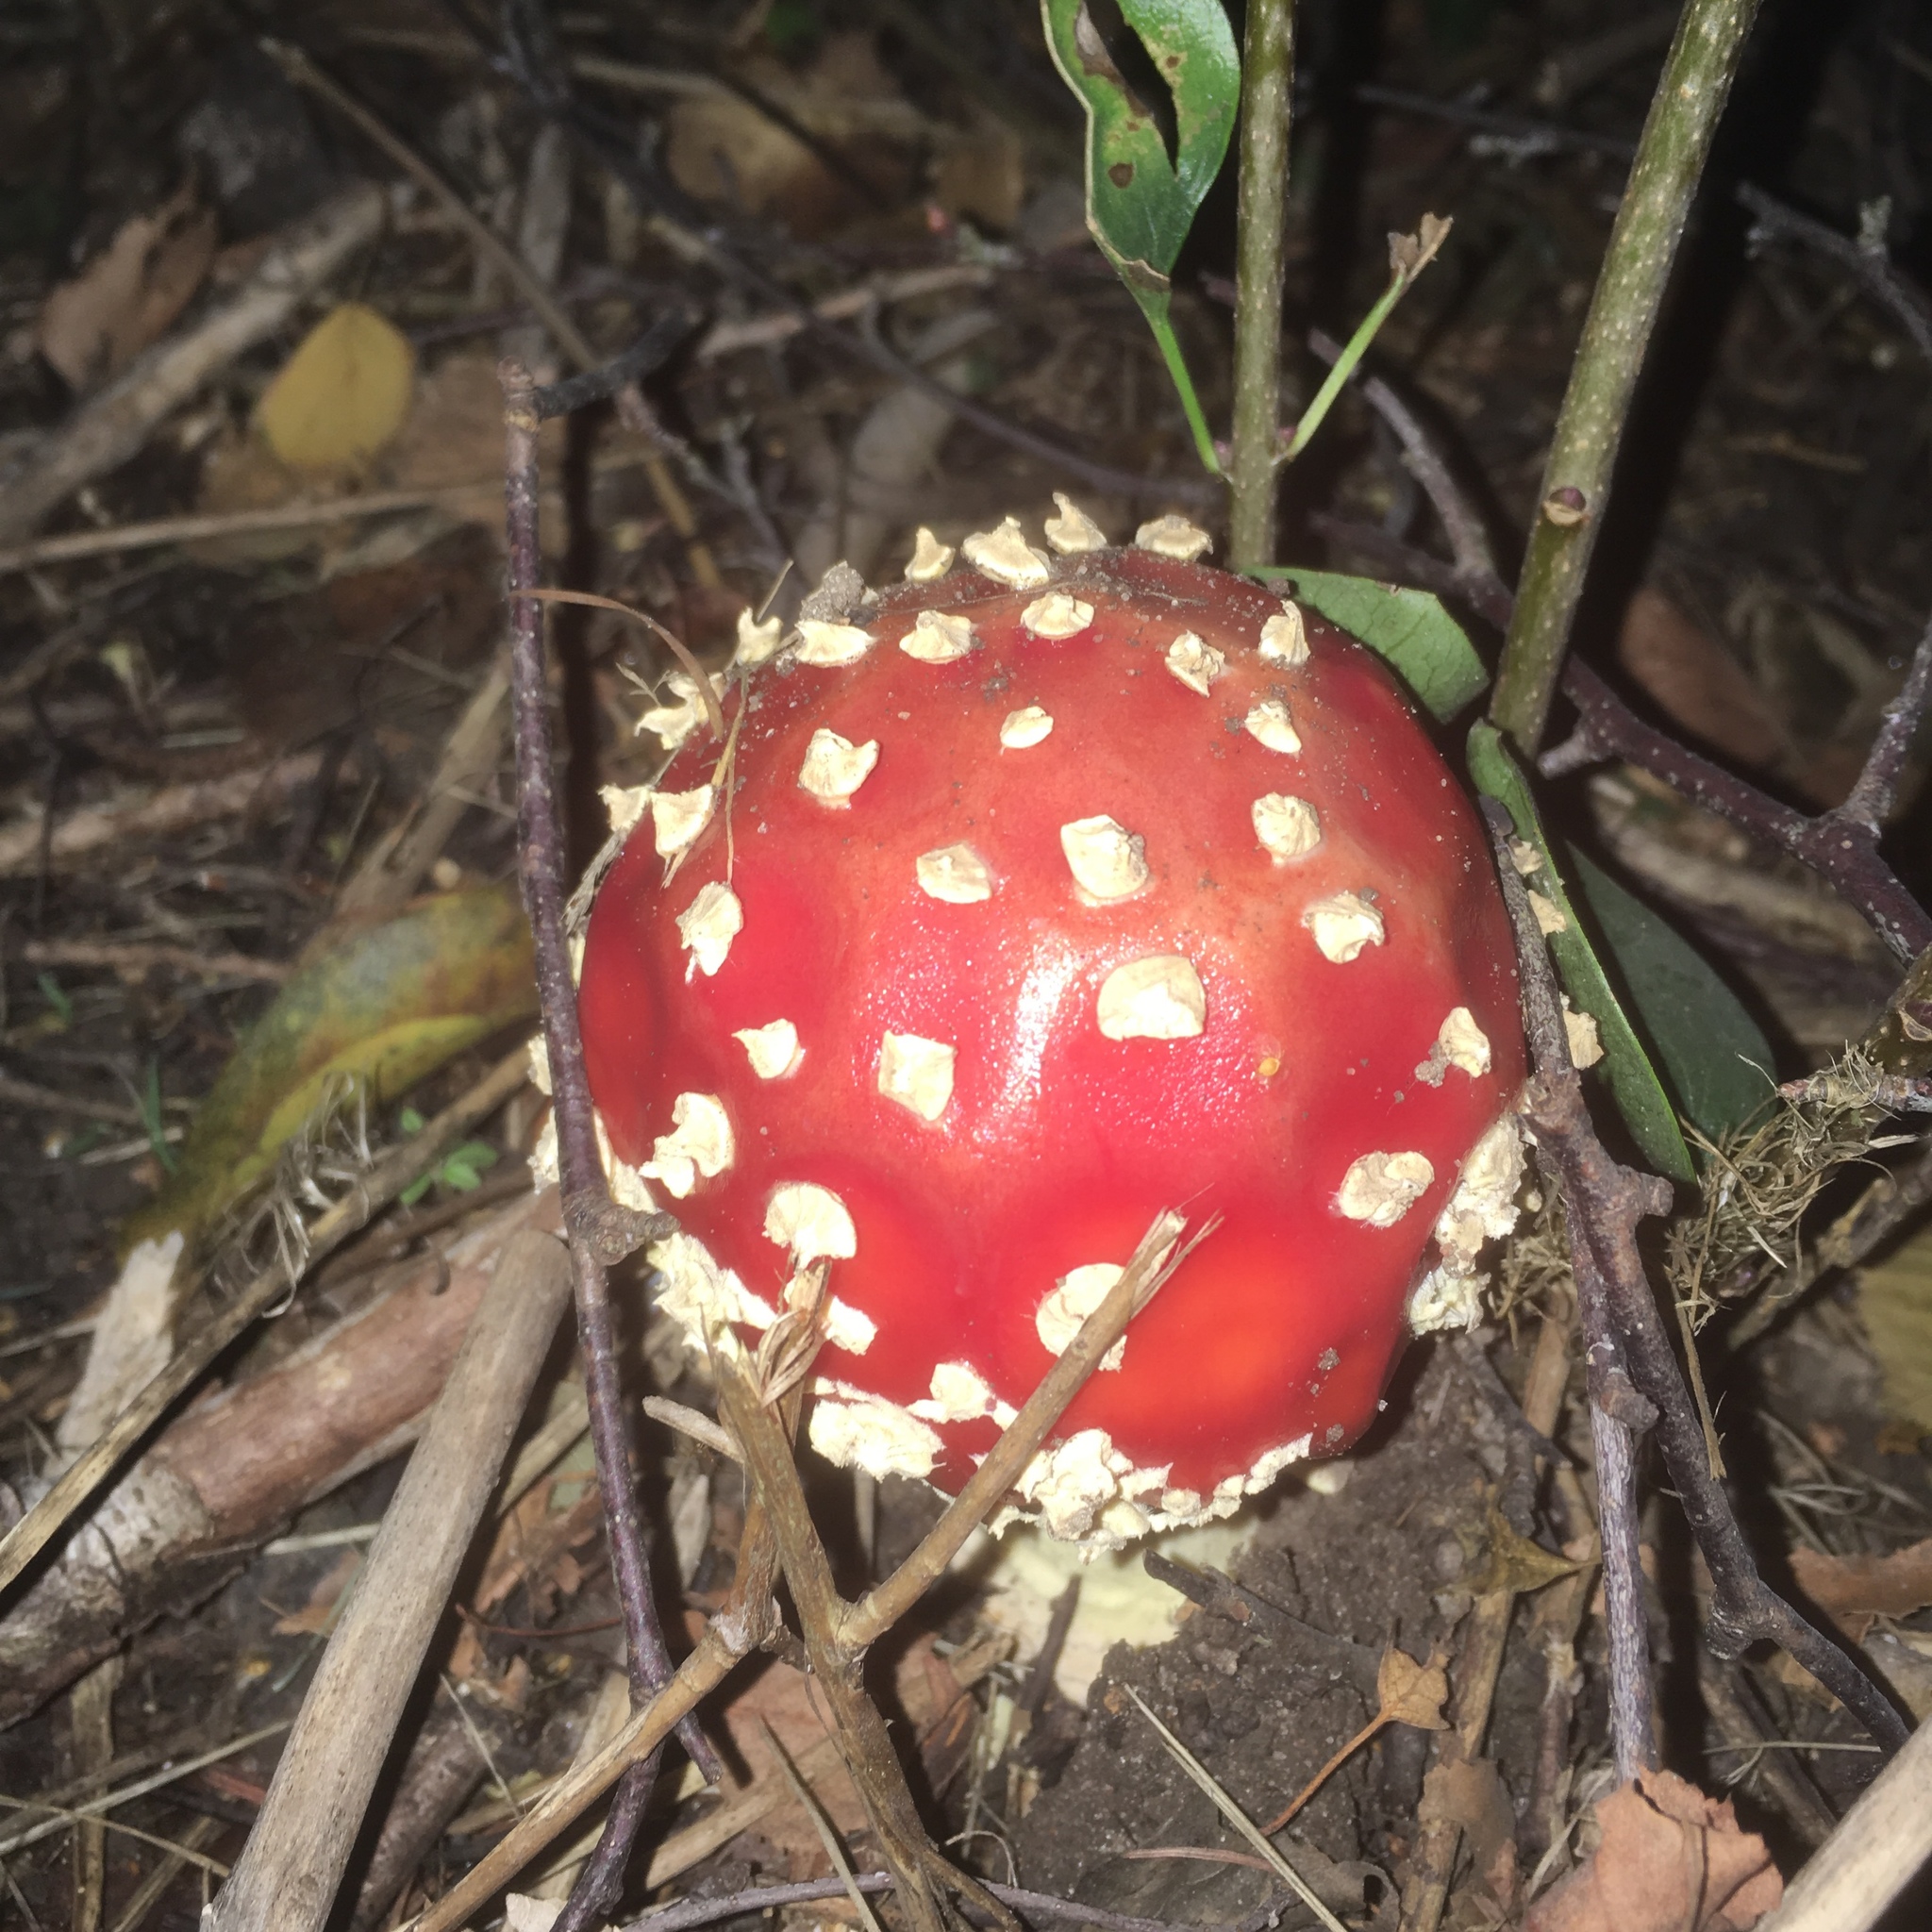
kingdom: Fungi
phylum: Basidiomycota
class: Agaricomycetes
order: Agaricales
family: Amanitaceae
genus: Amanita
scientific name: Amanita muscaria
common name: Fly agaric
